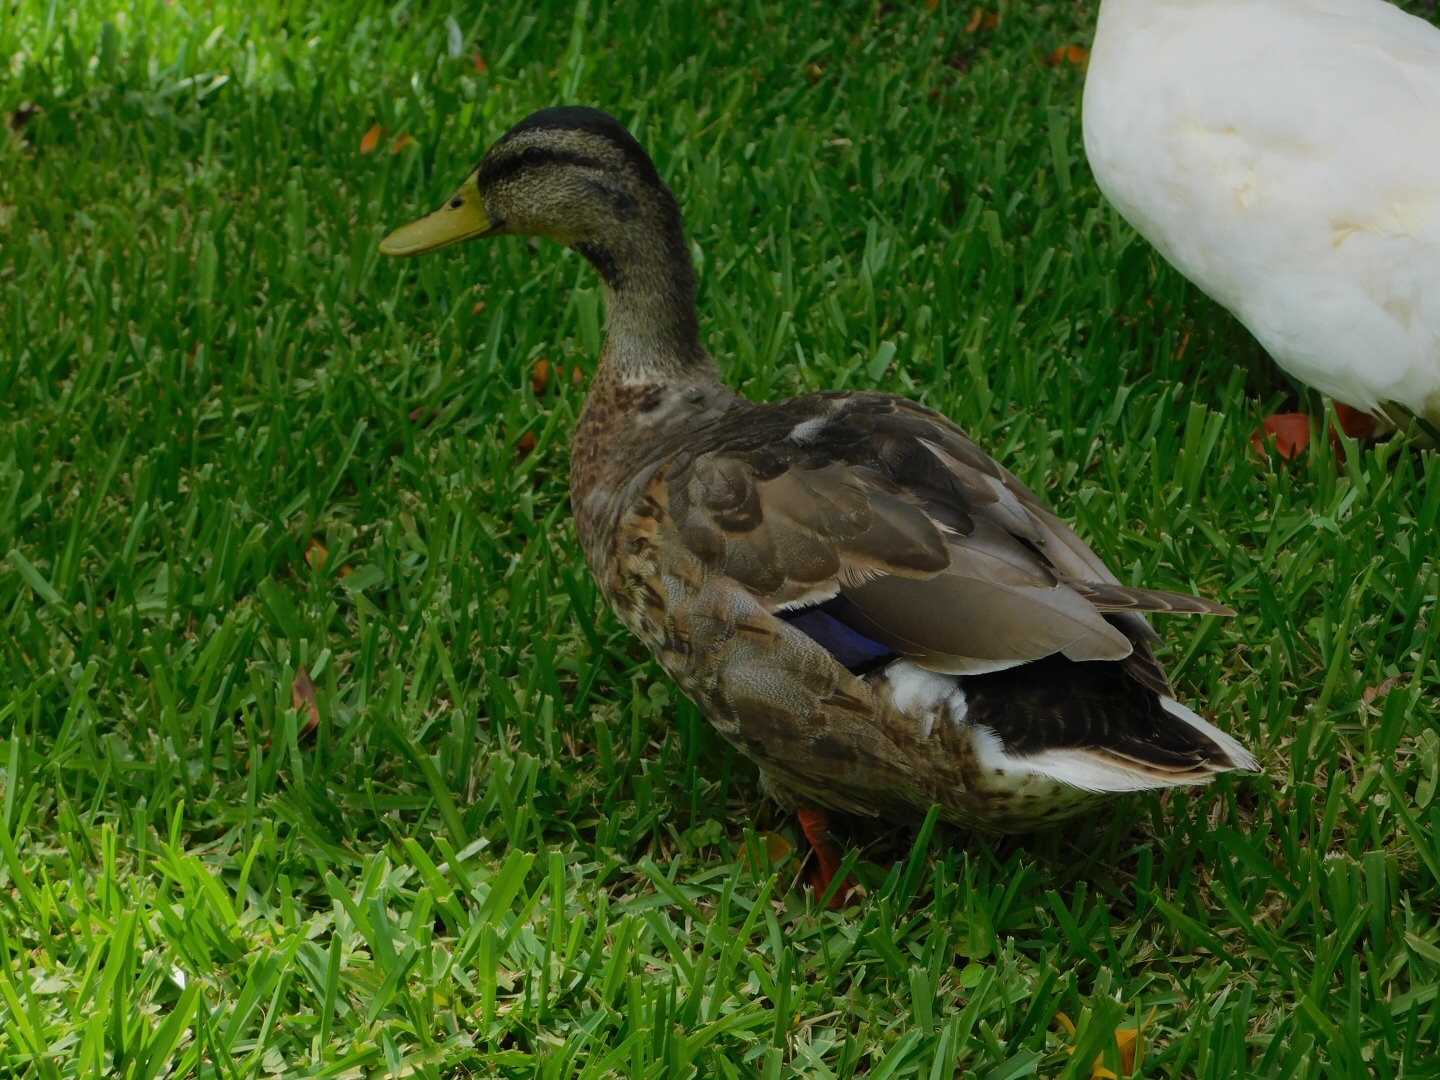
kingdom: Animalia
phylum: Chordata
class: Aves
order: Anseriformes
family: Anatidae
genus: Anas
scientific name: Anas platyrhynchos
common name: Mallard
